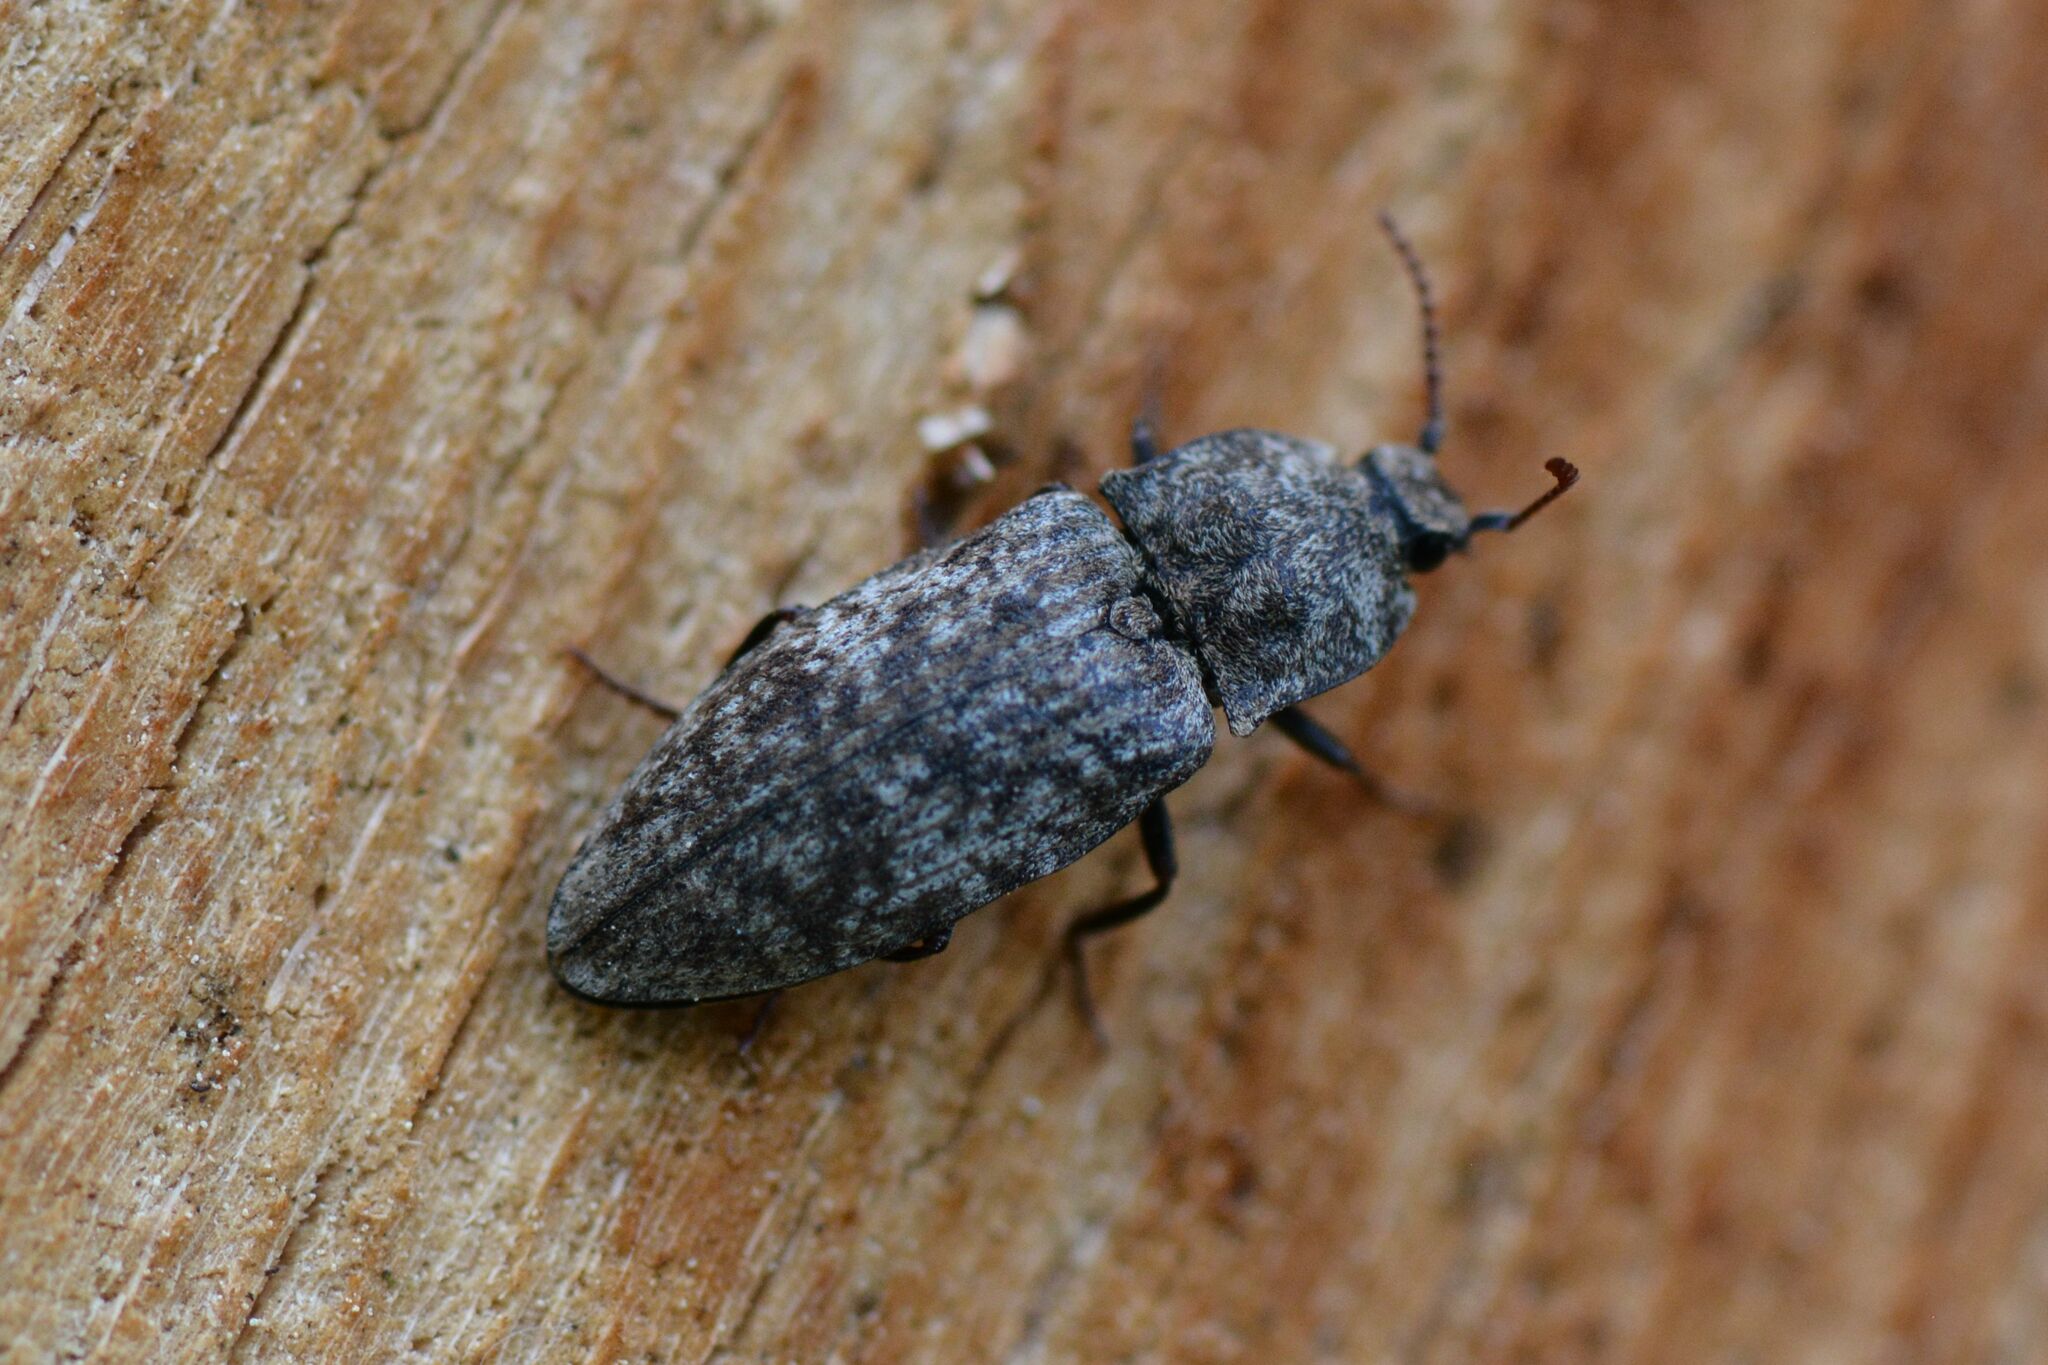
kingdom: Animalia
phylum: Arthropoda
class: Insecta
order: Coleoptera
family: Elateridae
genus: Agrypnus
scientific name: Agrypnus murinus
